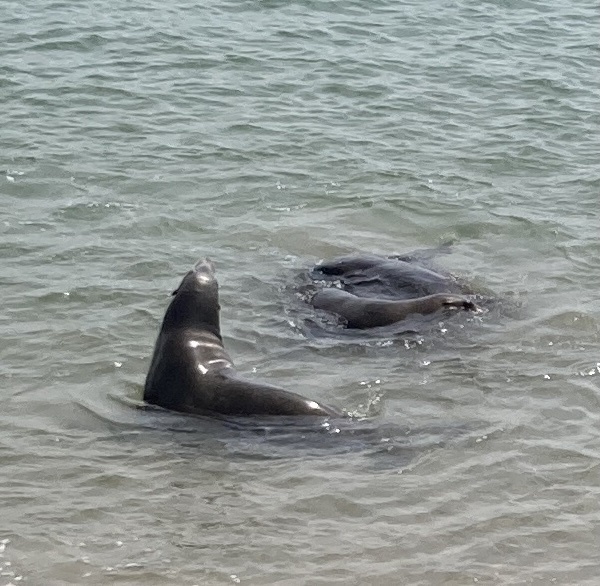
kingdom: Animalia
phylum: Chordata
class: Mammalia
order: Carnivora
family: Otariidae
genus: Zalophus
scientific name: Zalophus californianus
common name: California sea lion
